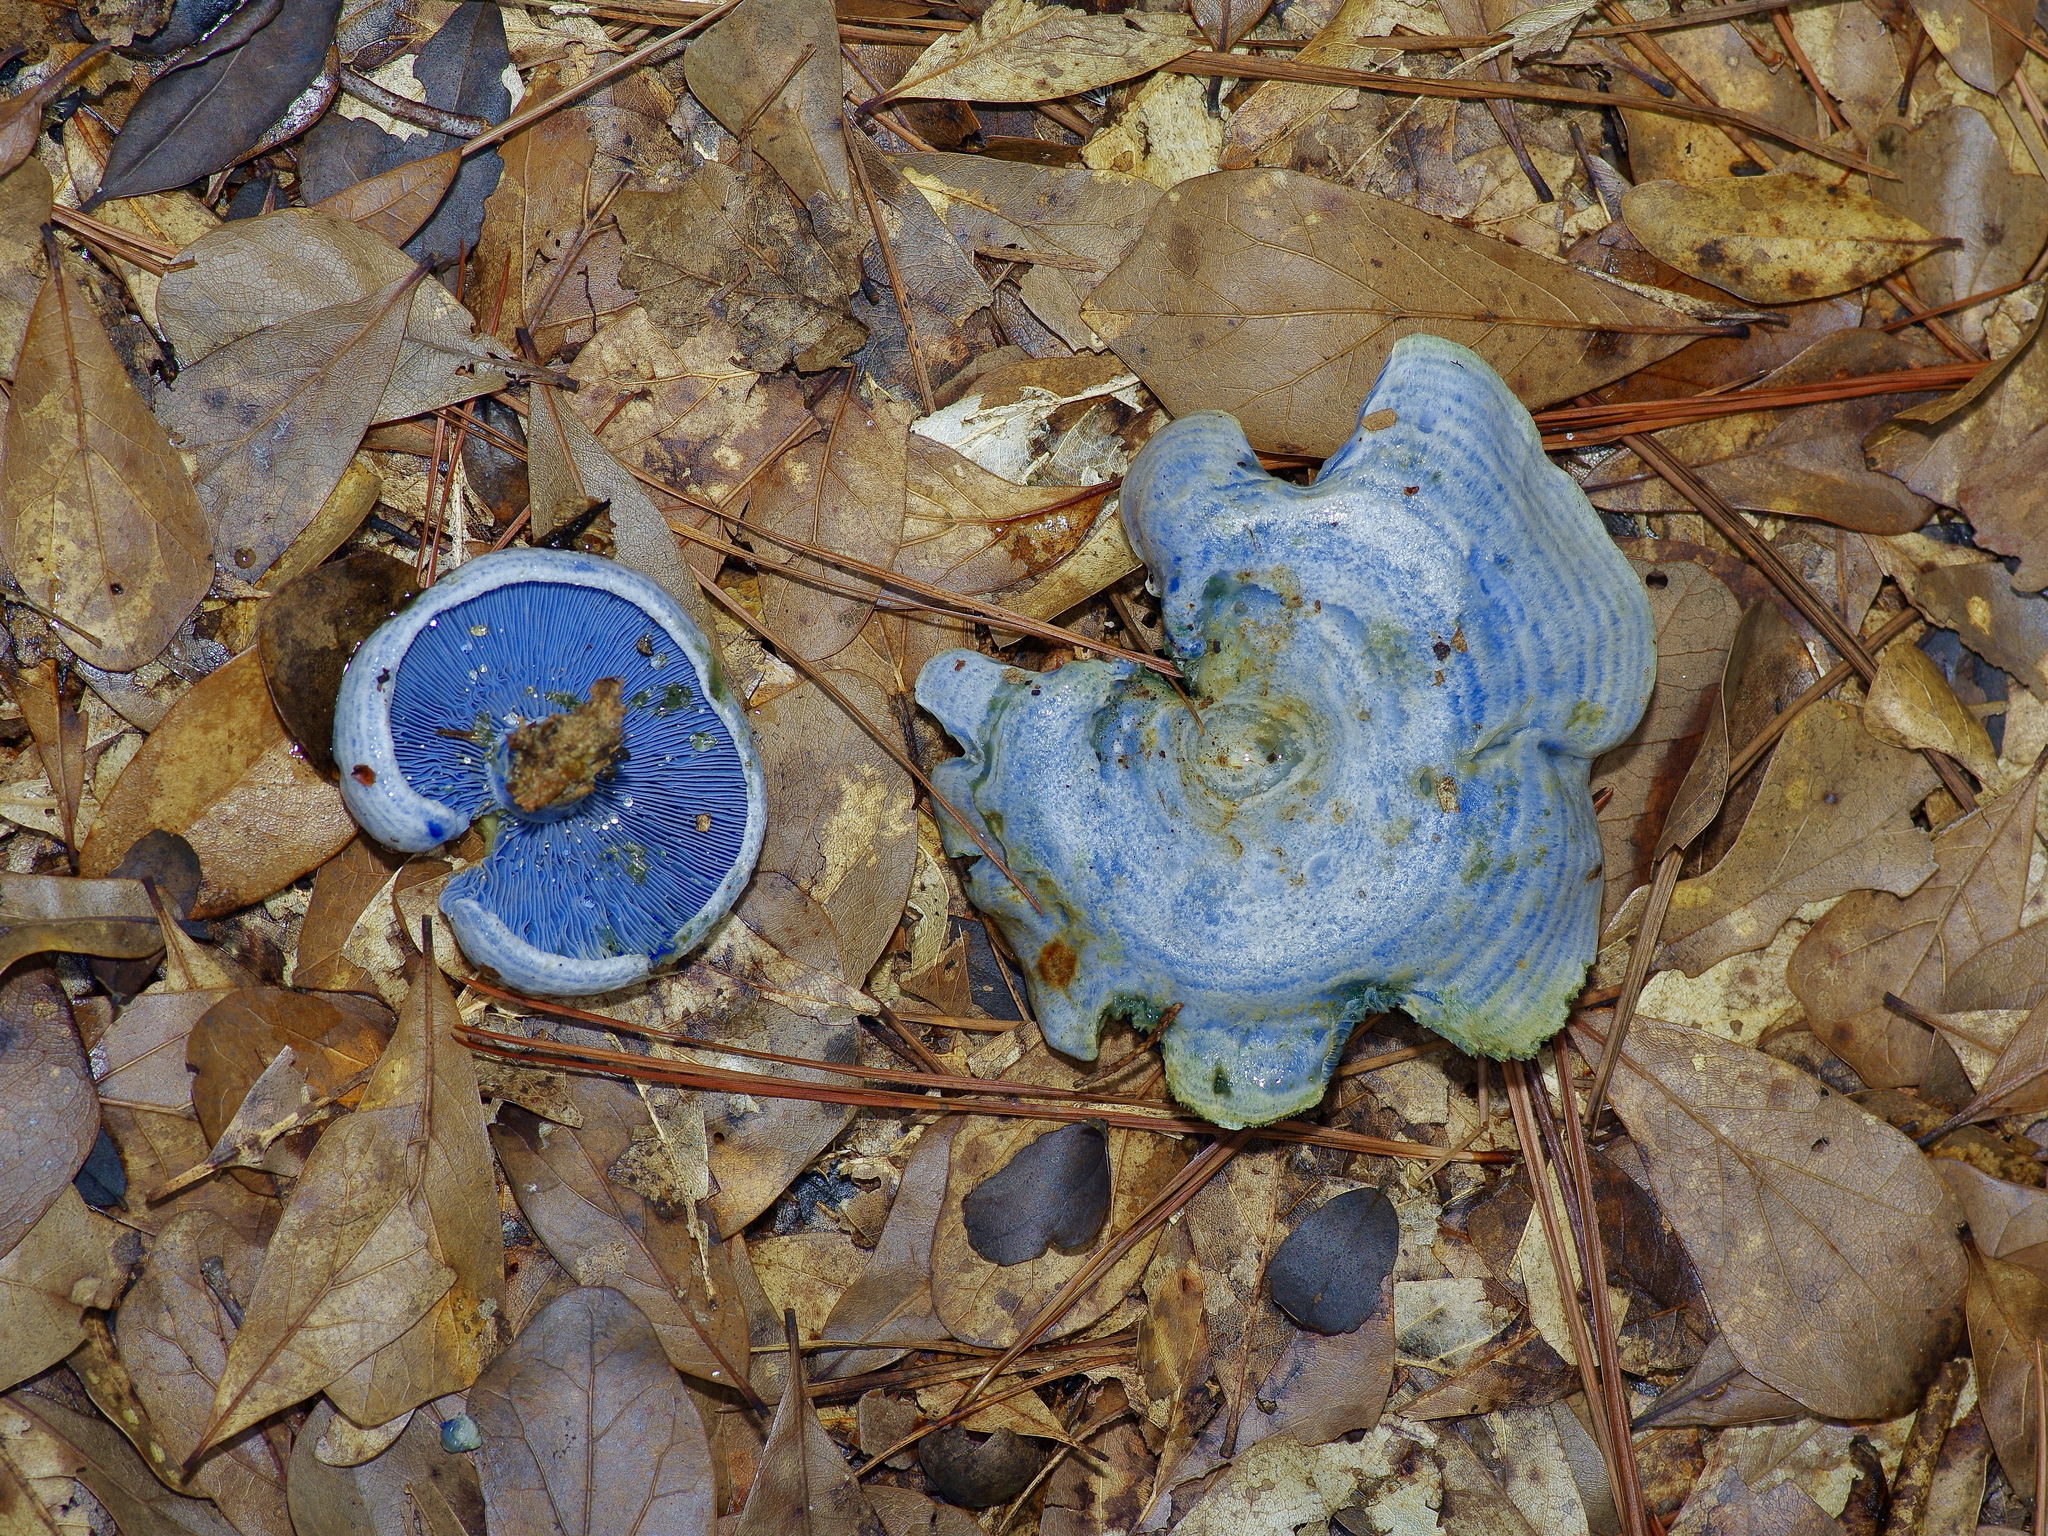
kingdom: Fungi
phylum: Basidiomycota
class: Agaricomycetes
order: Russulales
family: Russulaceae
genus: Lactarius
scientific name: Lactarius indigo
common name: Indigo milk cap
